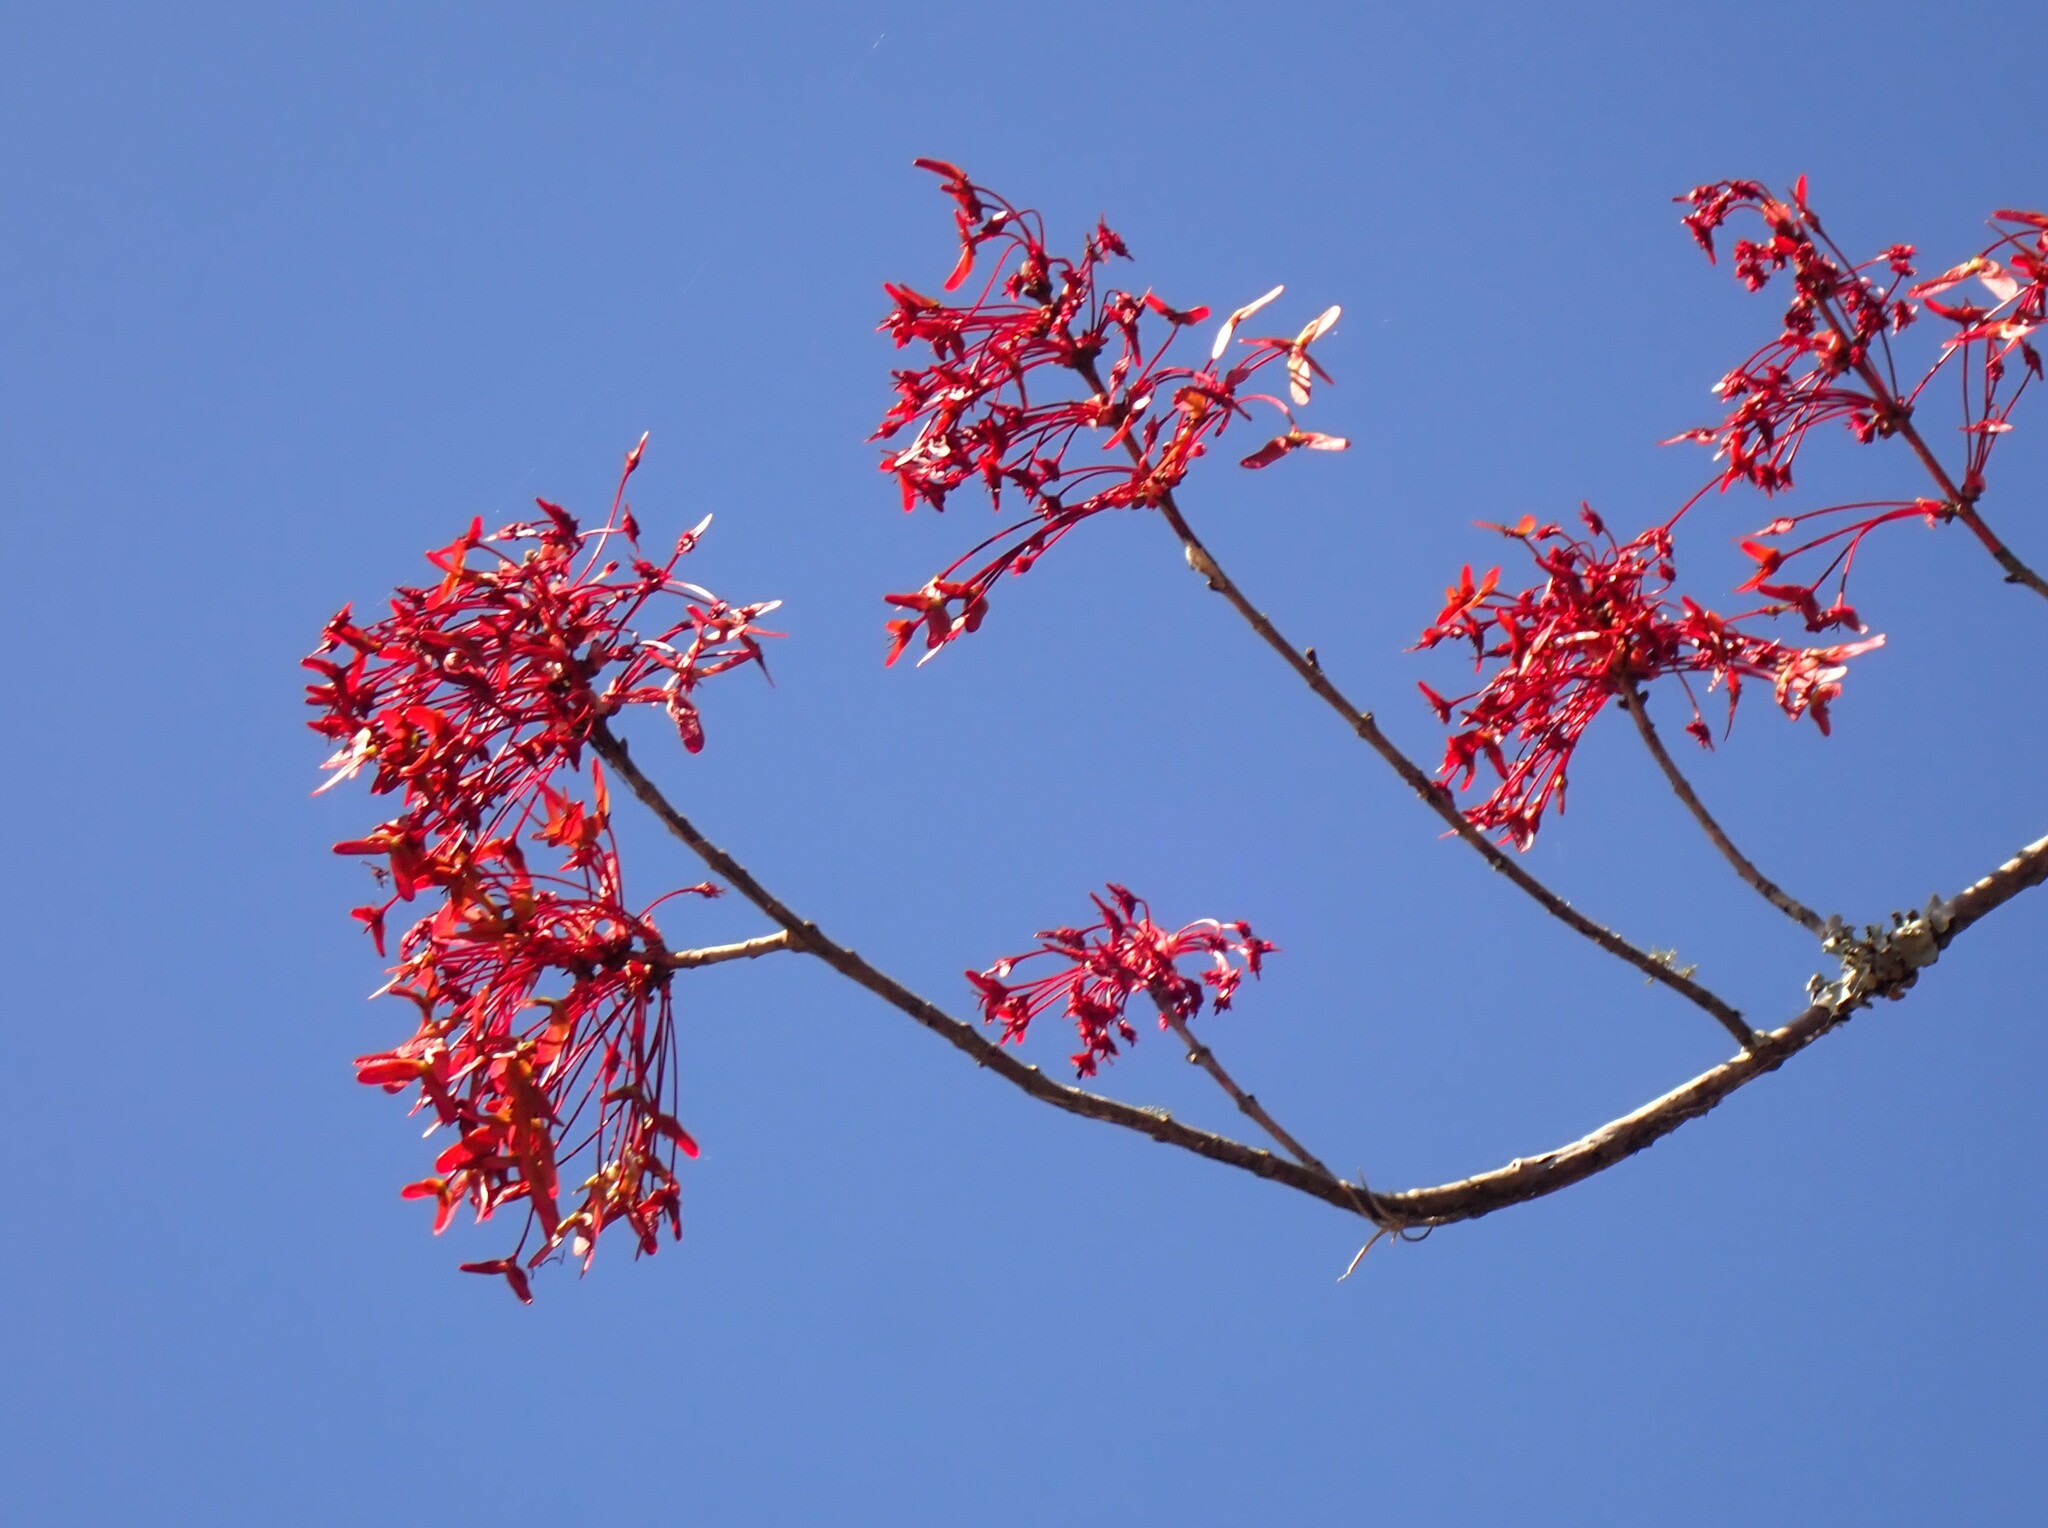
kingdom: Plantae
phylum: Tracheophyta
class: Magnoliopsida
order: Sapindales
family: Sapindaceae
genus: Acer
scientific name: Acer rubrum
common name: Red maple
